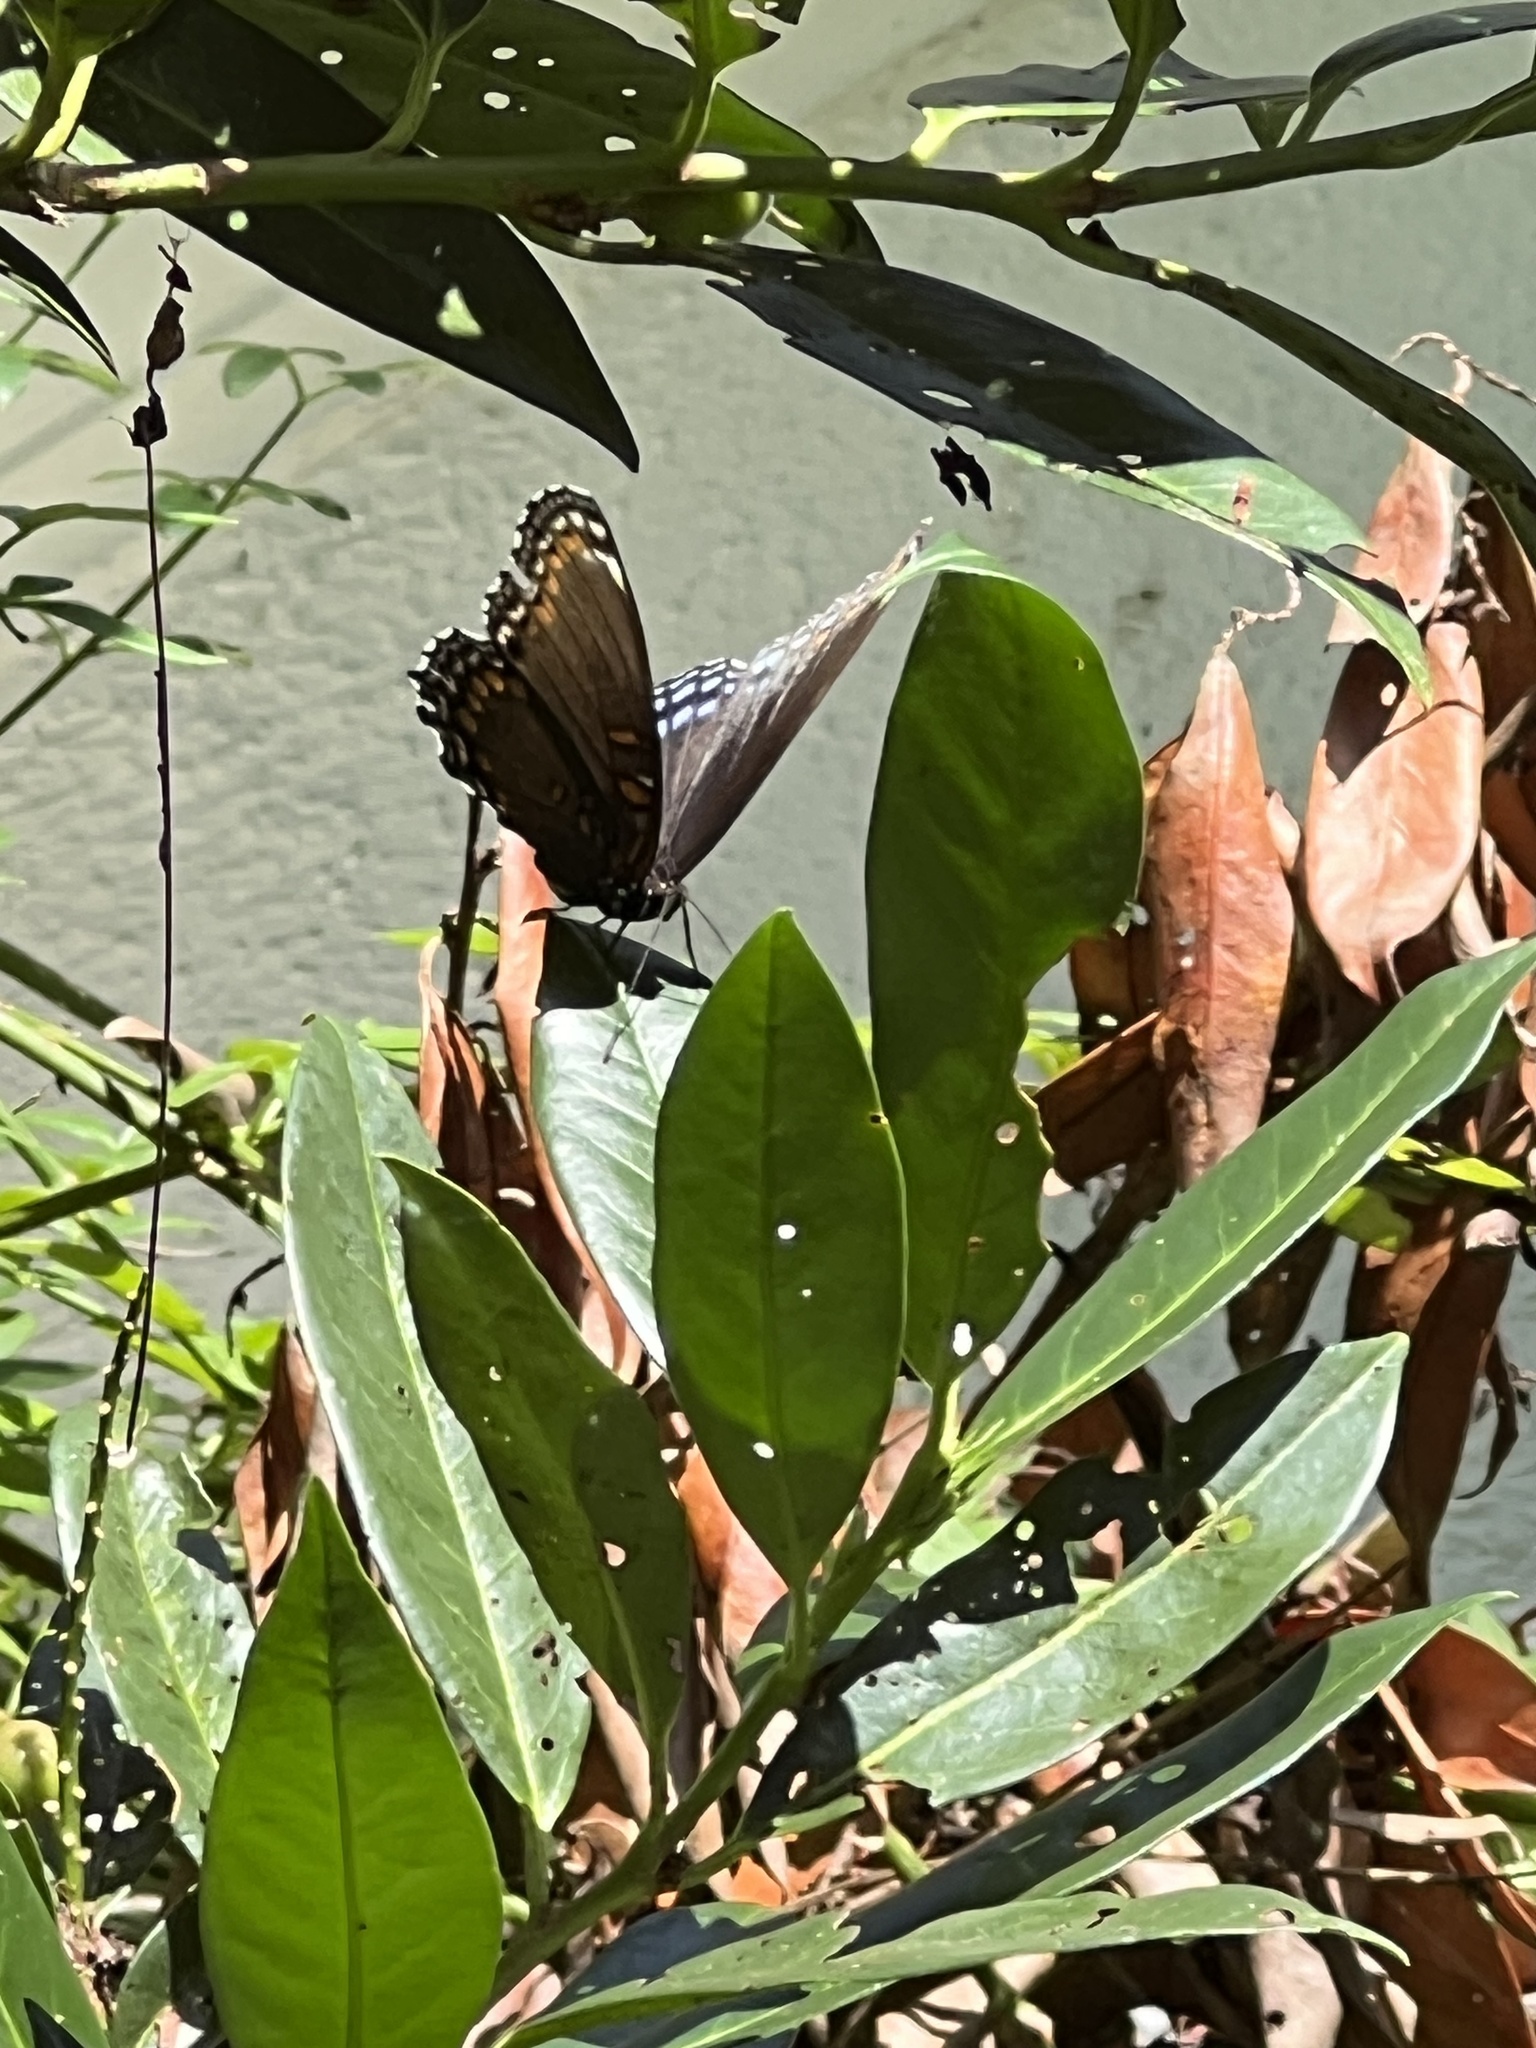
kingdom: Animalia
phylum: Arthropoda
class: Insecta
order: Lepidoptera
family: Nymphalidae
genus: Limenitis
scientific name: Limenitis astyanax
